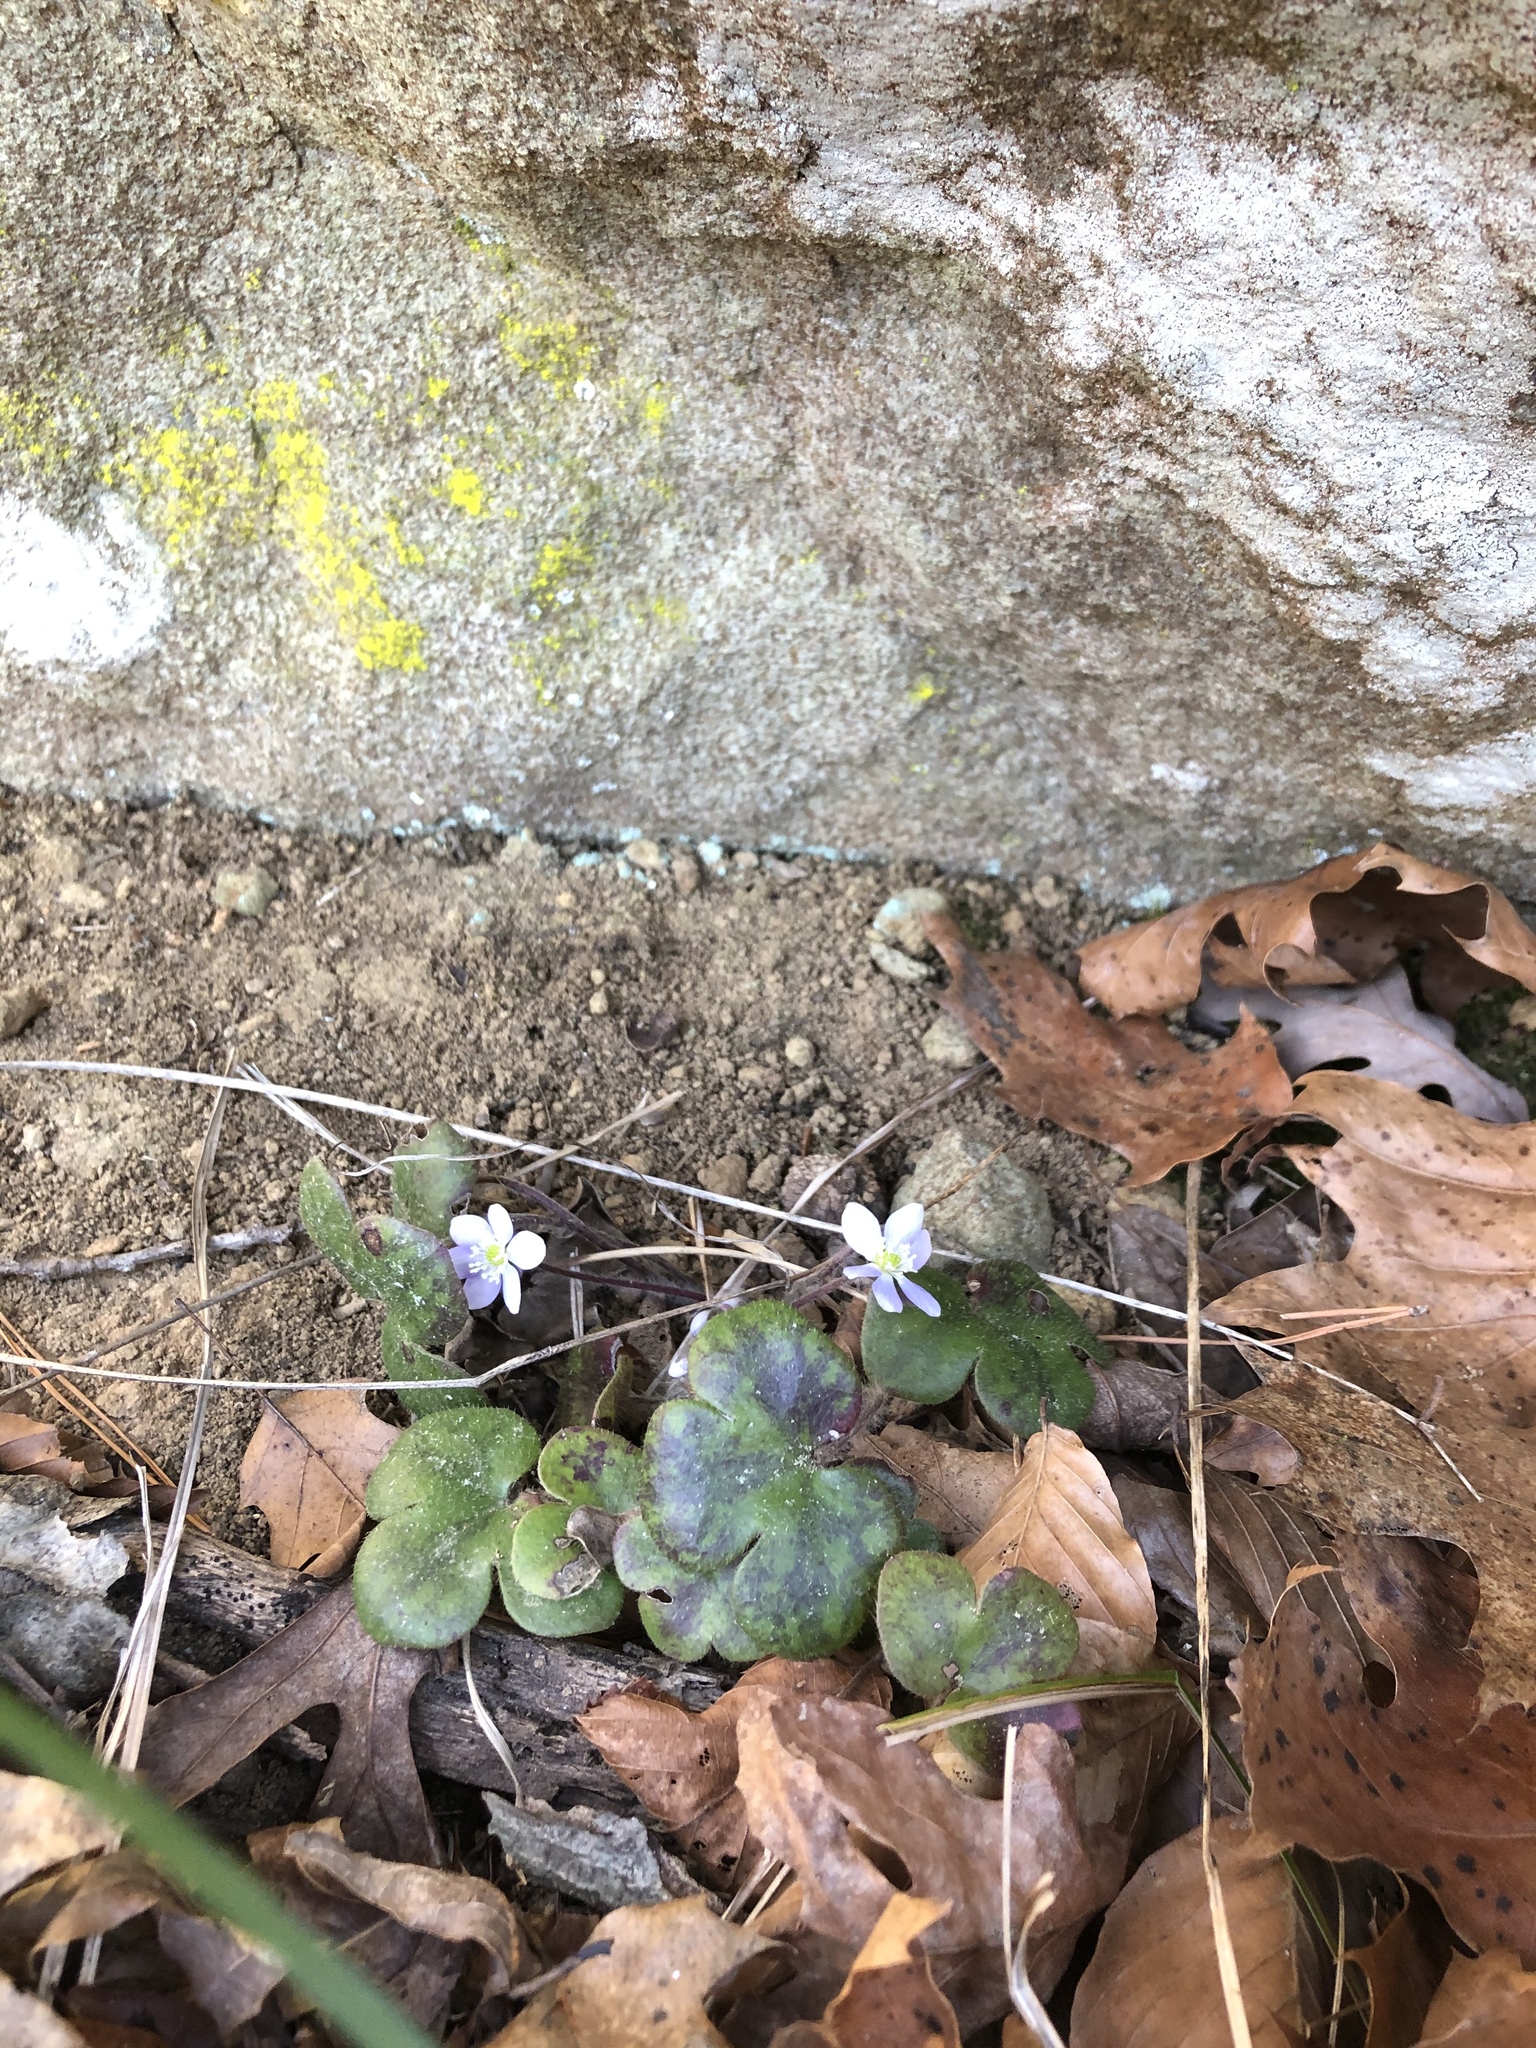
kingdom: Plantae
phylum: Tracheophyta
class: Magnoliopsida
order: Ranunculales
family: Ranunculaceae
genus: Hepatica
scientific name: Hepatica americana
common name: American hepatica
